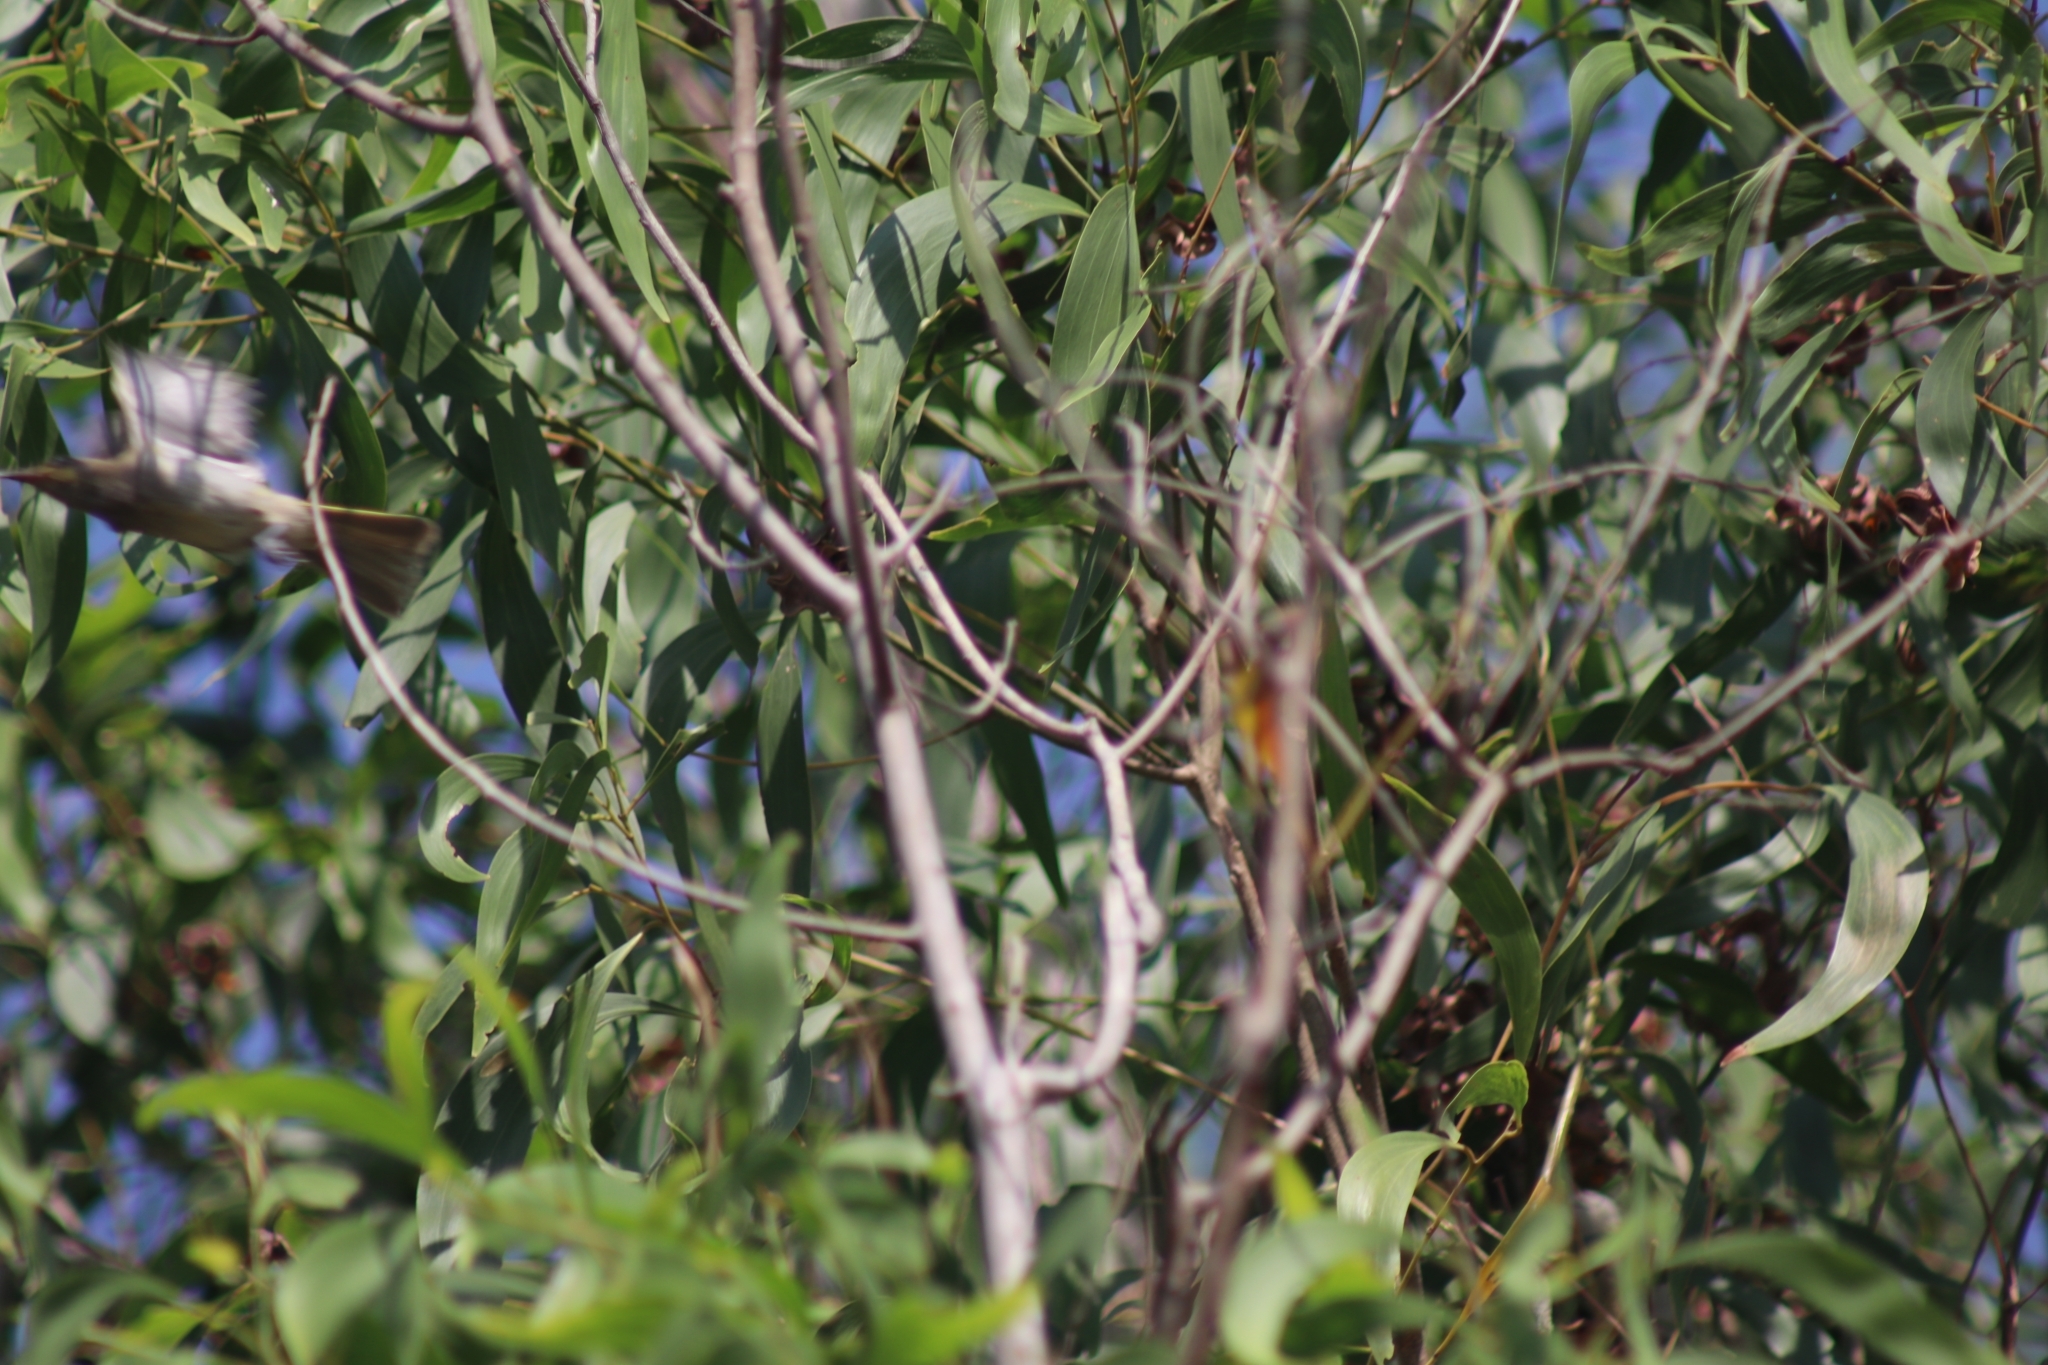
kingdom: Animalia
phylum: Chordata
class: Aves
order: Passeriformes
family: Meliphagidae
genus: Lichmera
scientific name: Lichmera indistincta
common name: Brown honeyeater
